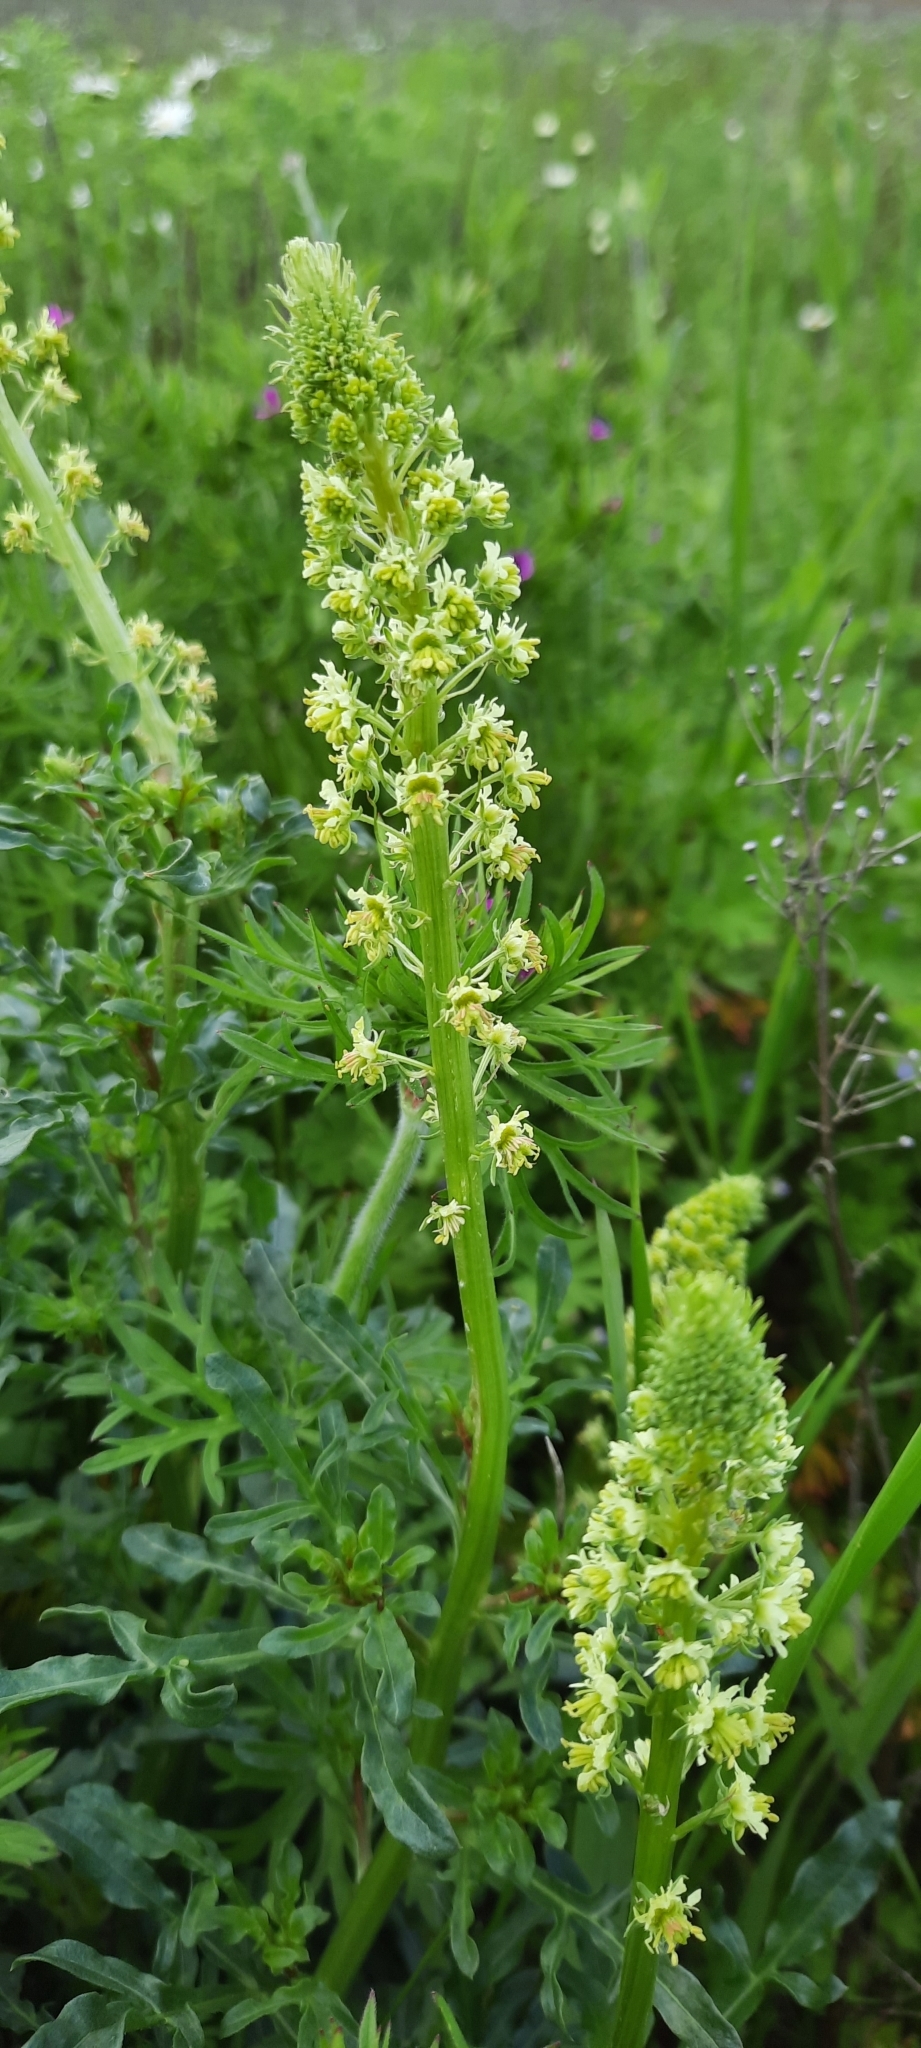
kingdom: Plantae
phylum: Tracheophyta
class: Magnoliopsida
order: Brassicales
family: Resedaceae
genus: Reseda
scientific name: Reseda lutea
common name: Wild mignonette
